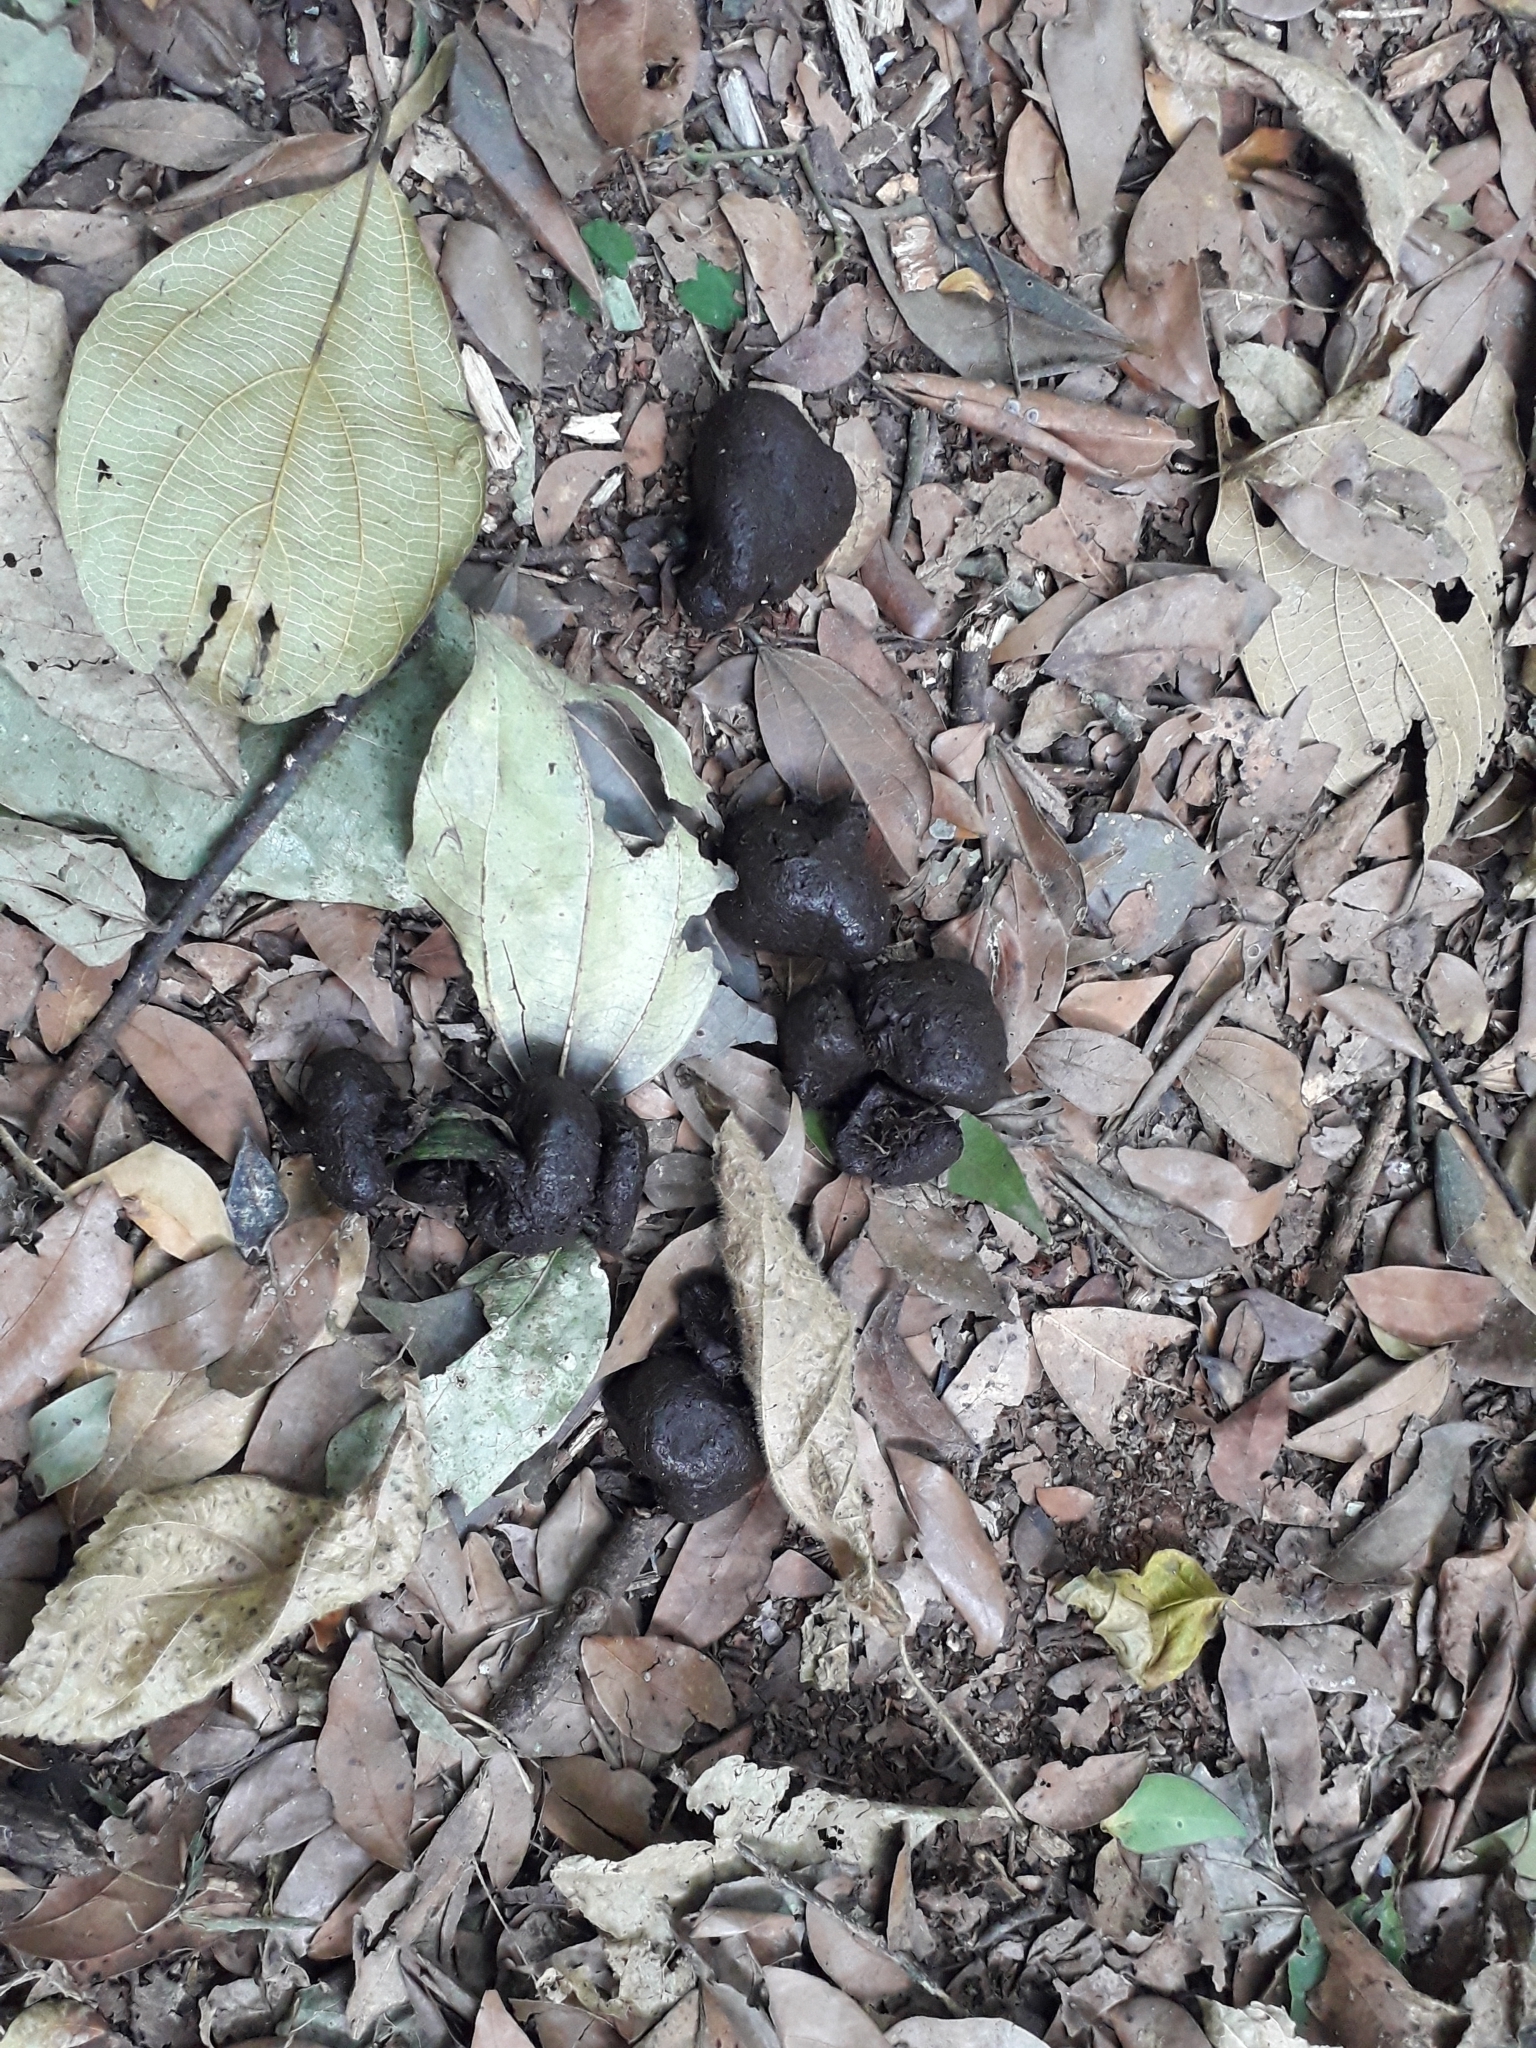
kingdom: Animalia
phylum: Chordata
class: Mammalia
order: Artiodactyla
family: Suidae
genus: Potamochoerus
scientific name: Potamochoerus larvatus
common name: Bushpig
